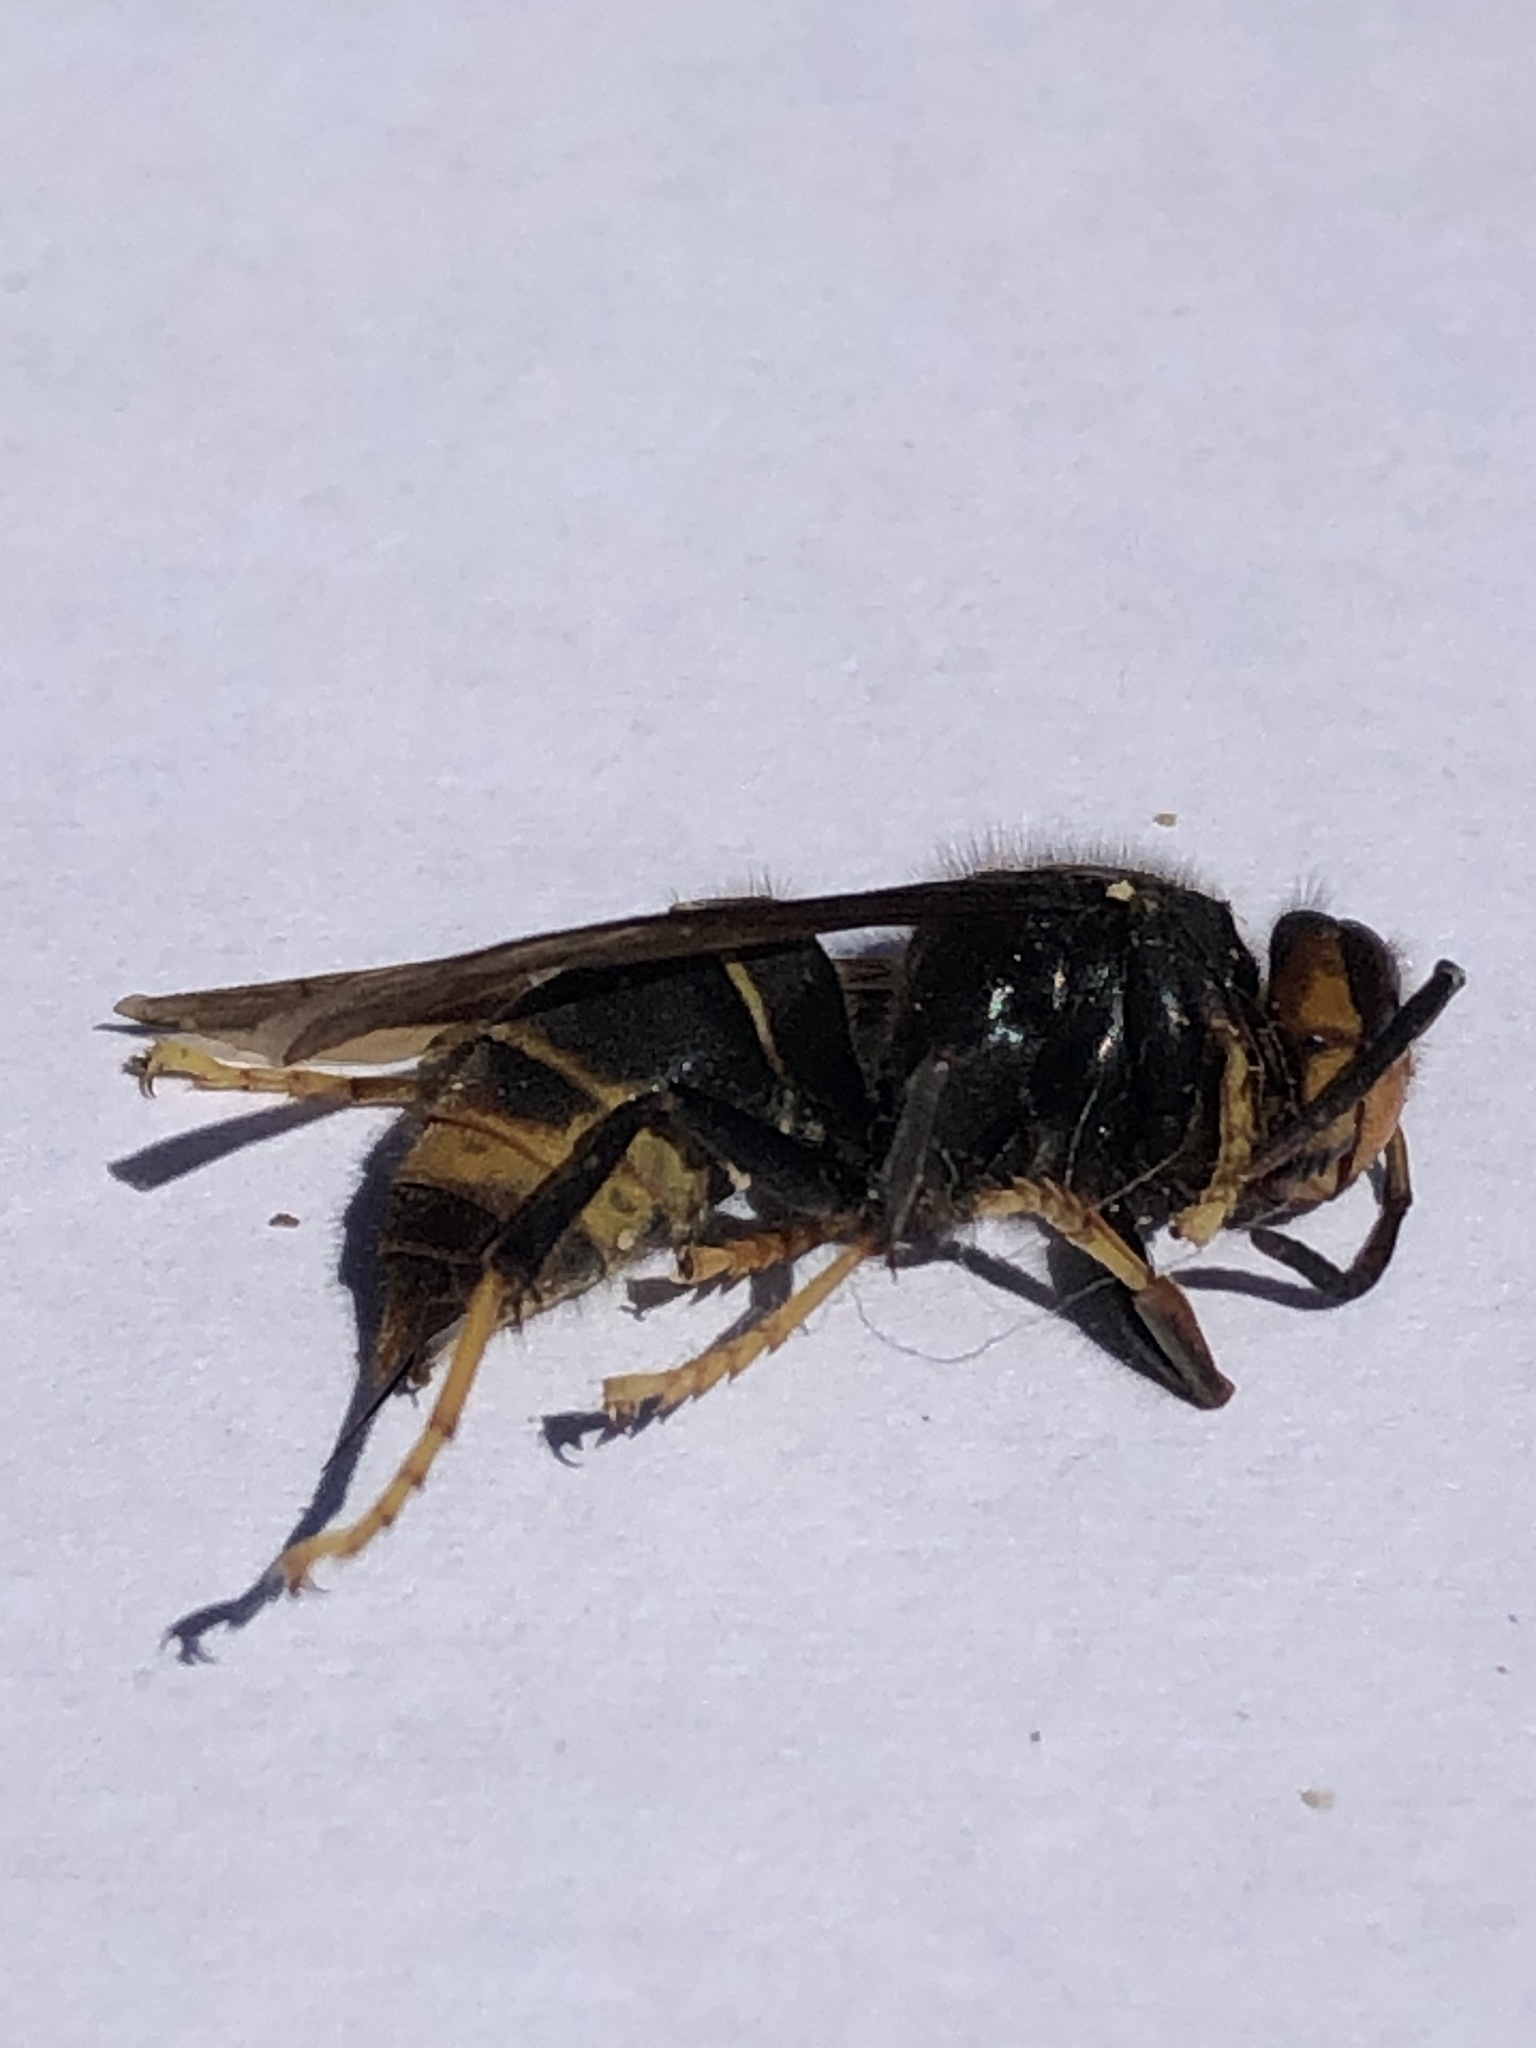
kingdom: Animalia
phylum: Arthropoda
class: Insecta
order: Hymenoptera
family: Vespidae
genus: Vespa
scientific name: Vespa velutina
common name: Asian hornet
